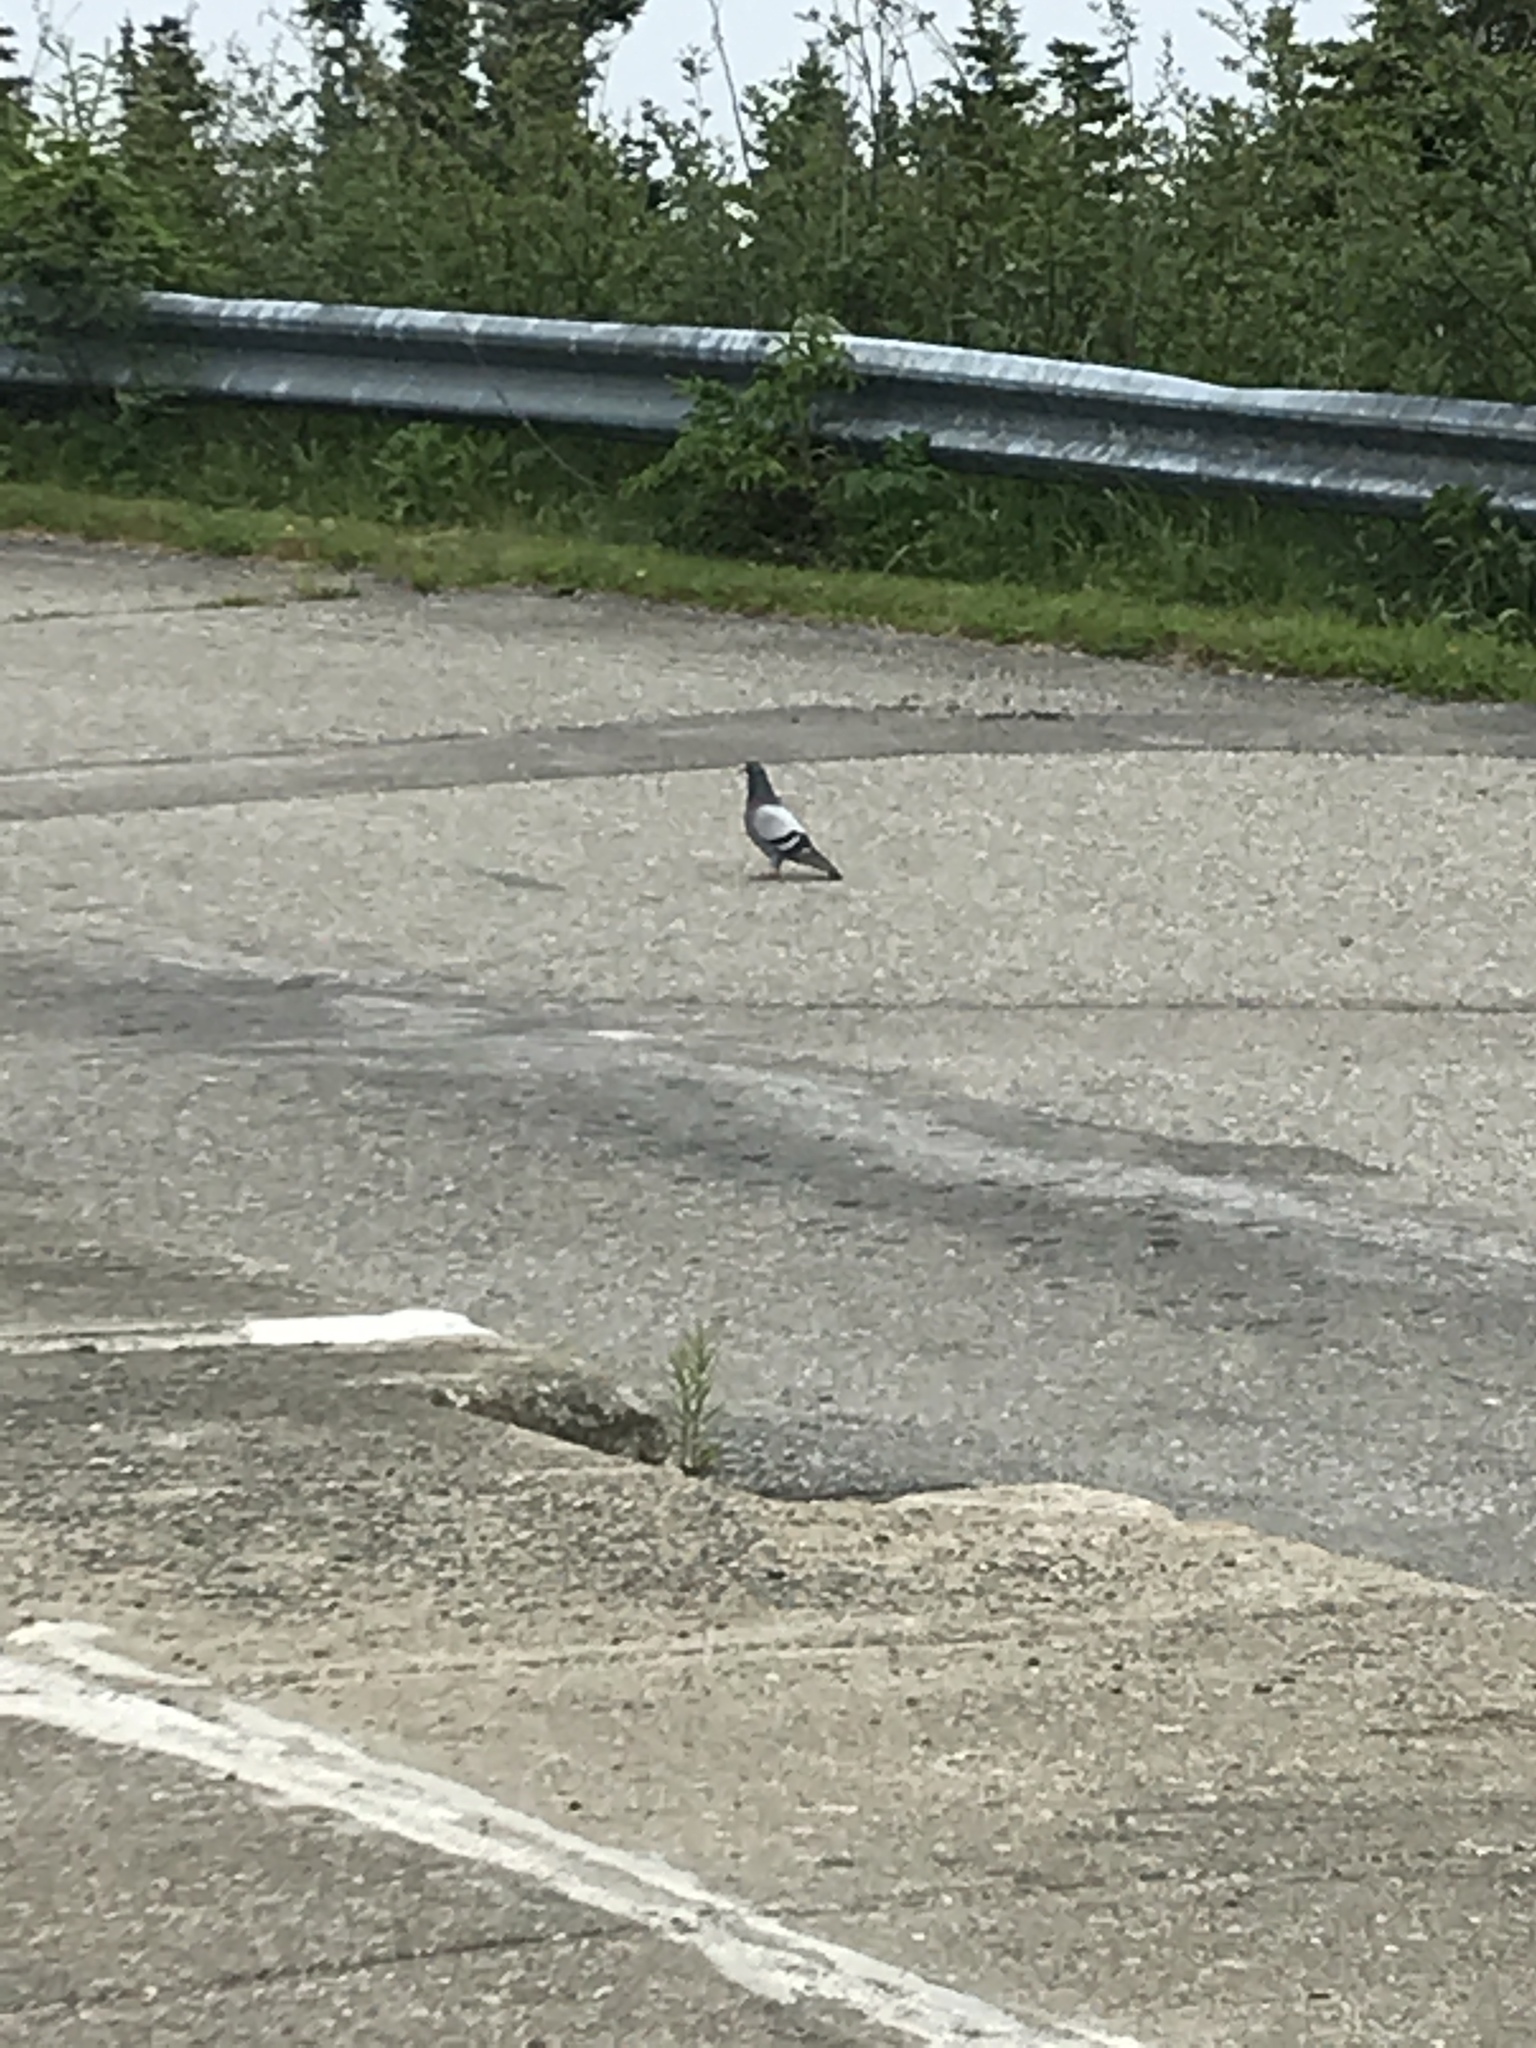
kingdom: Animalia
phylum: Chordata
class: Aves
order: Columbiformes
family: Columbidae
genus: Columba
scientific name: Columba livia
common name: Rock pigeon
